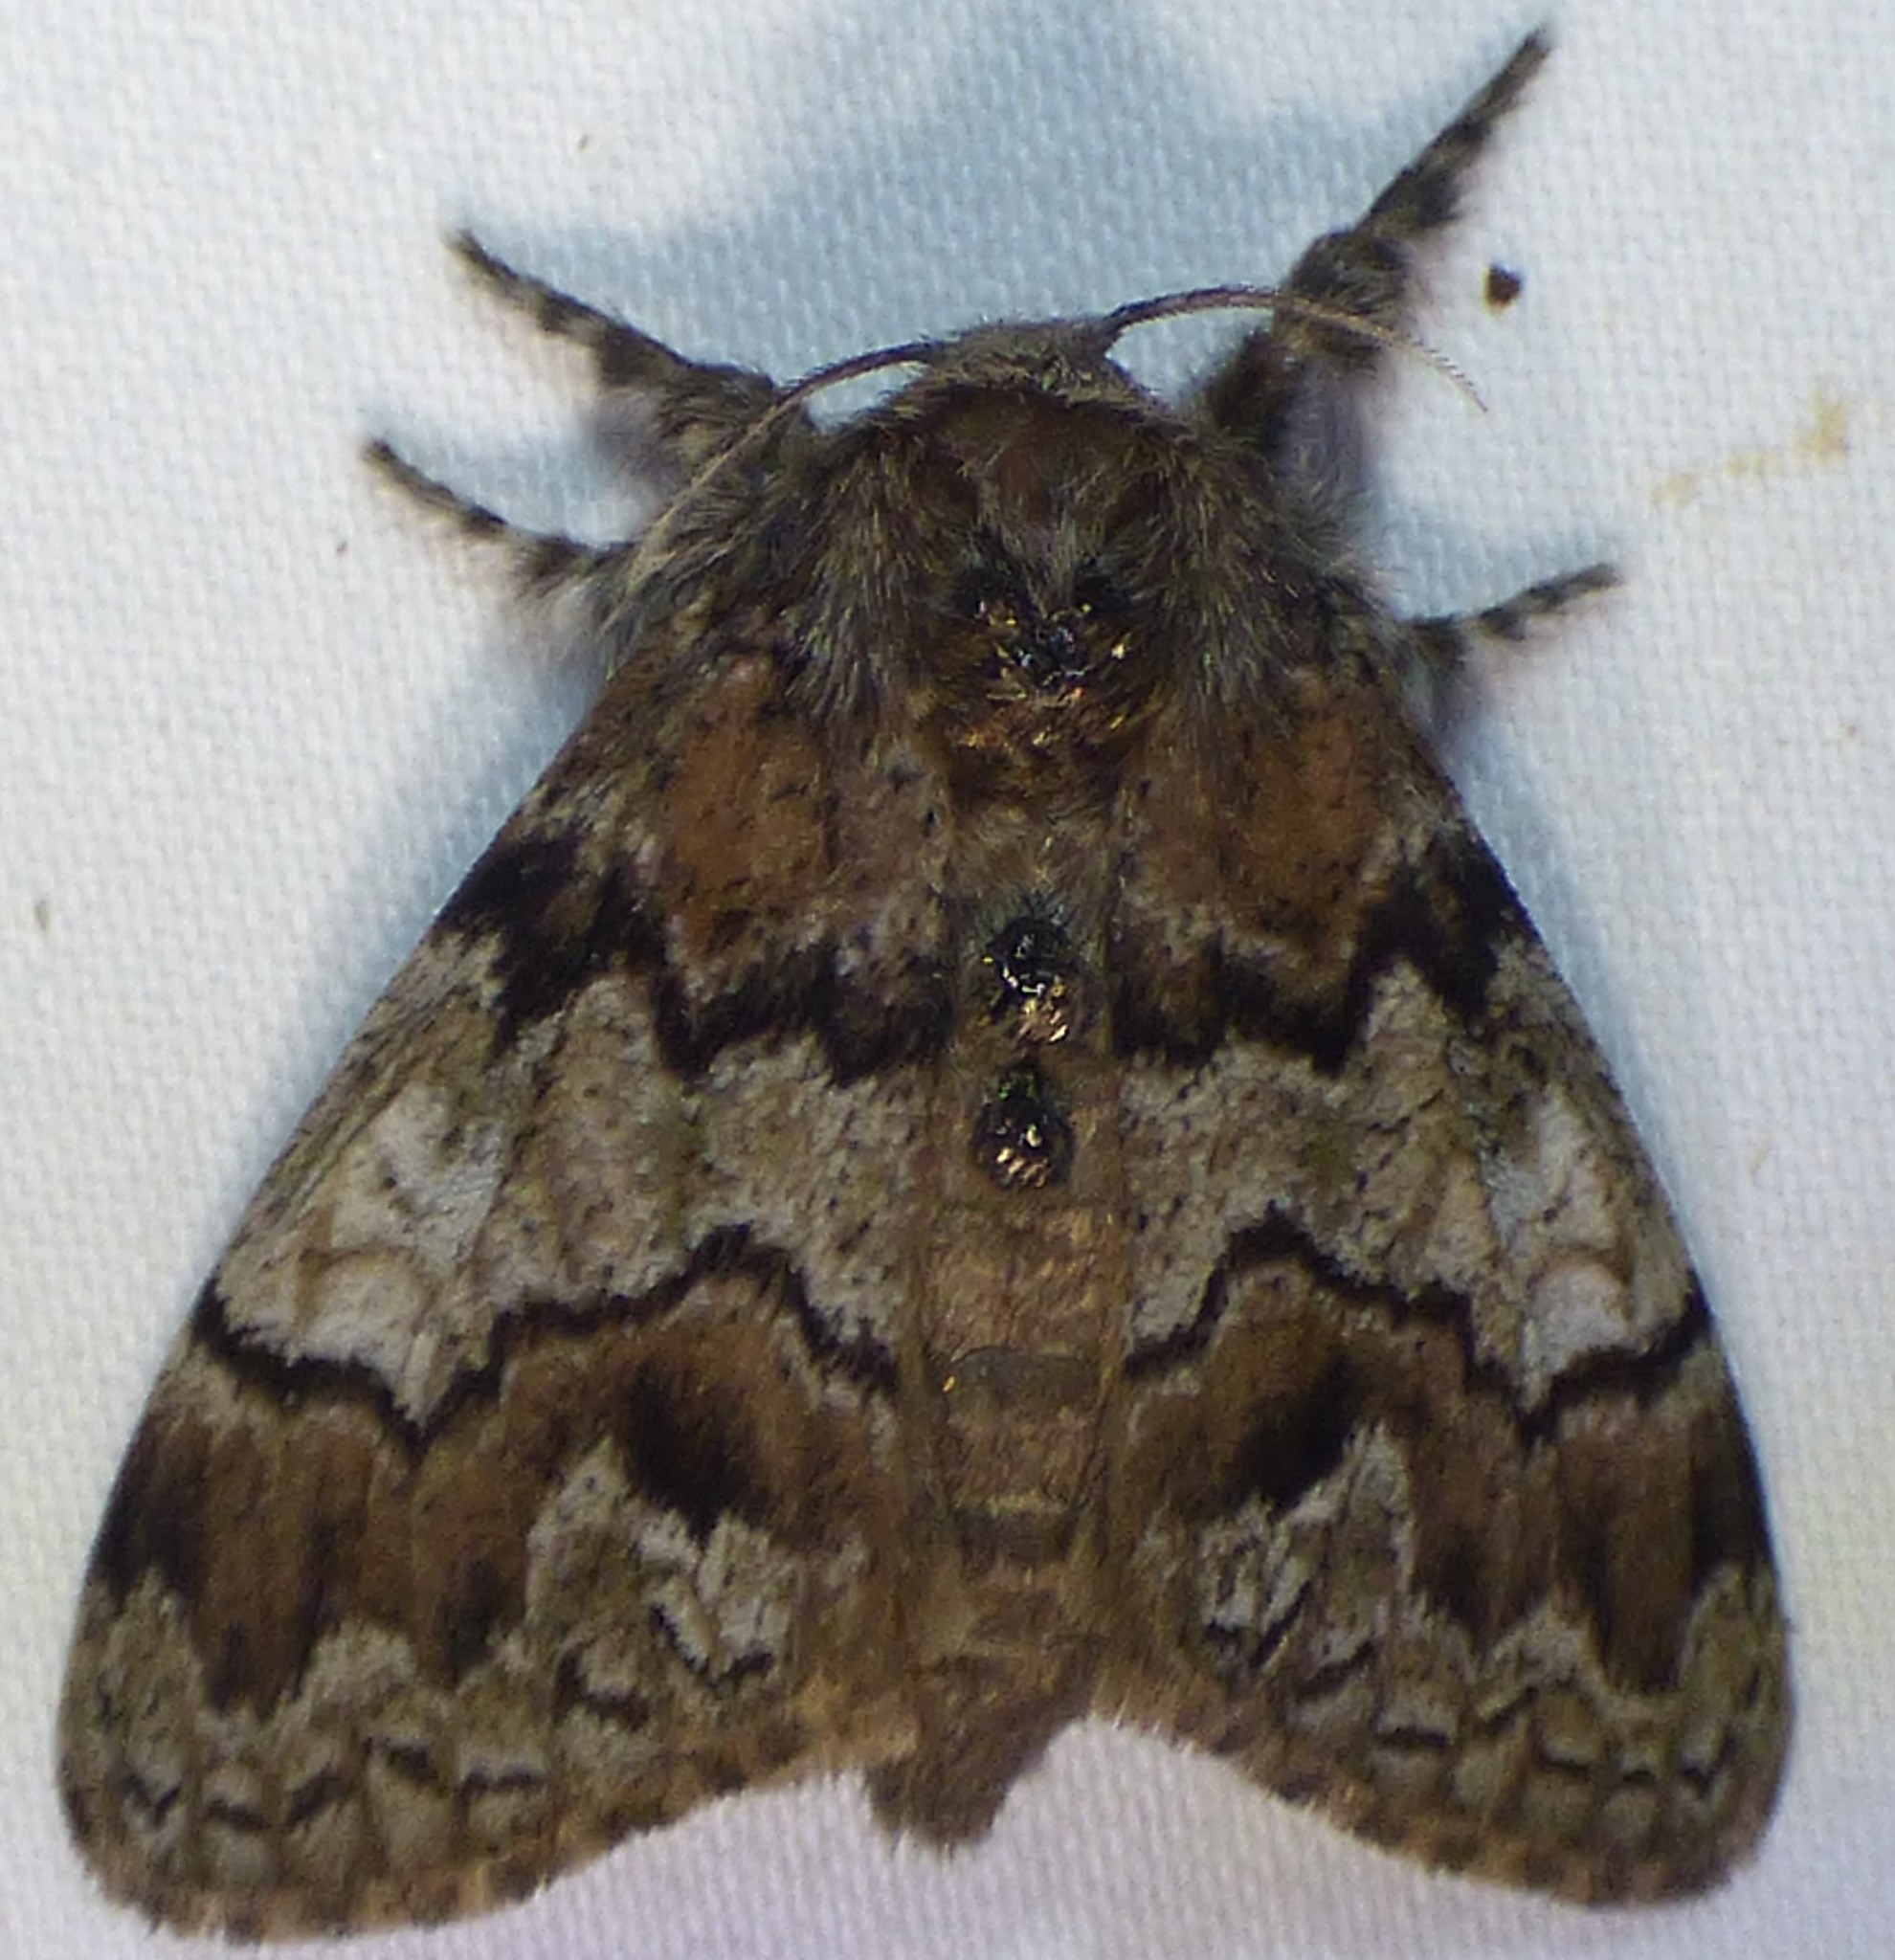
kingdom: Animalia
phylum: Arthropoda
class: Insecta
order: Lepidoptera
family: Erebidae
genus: Dasychira
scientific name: Dasychira manto
